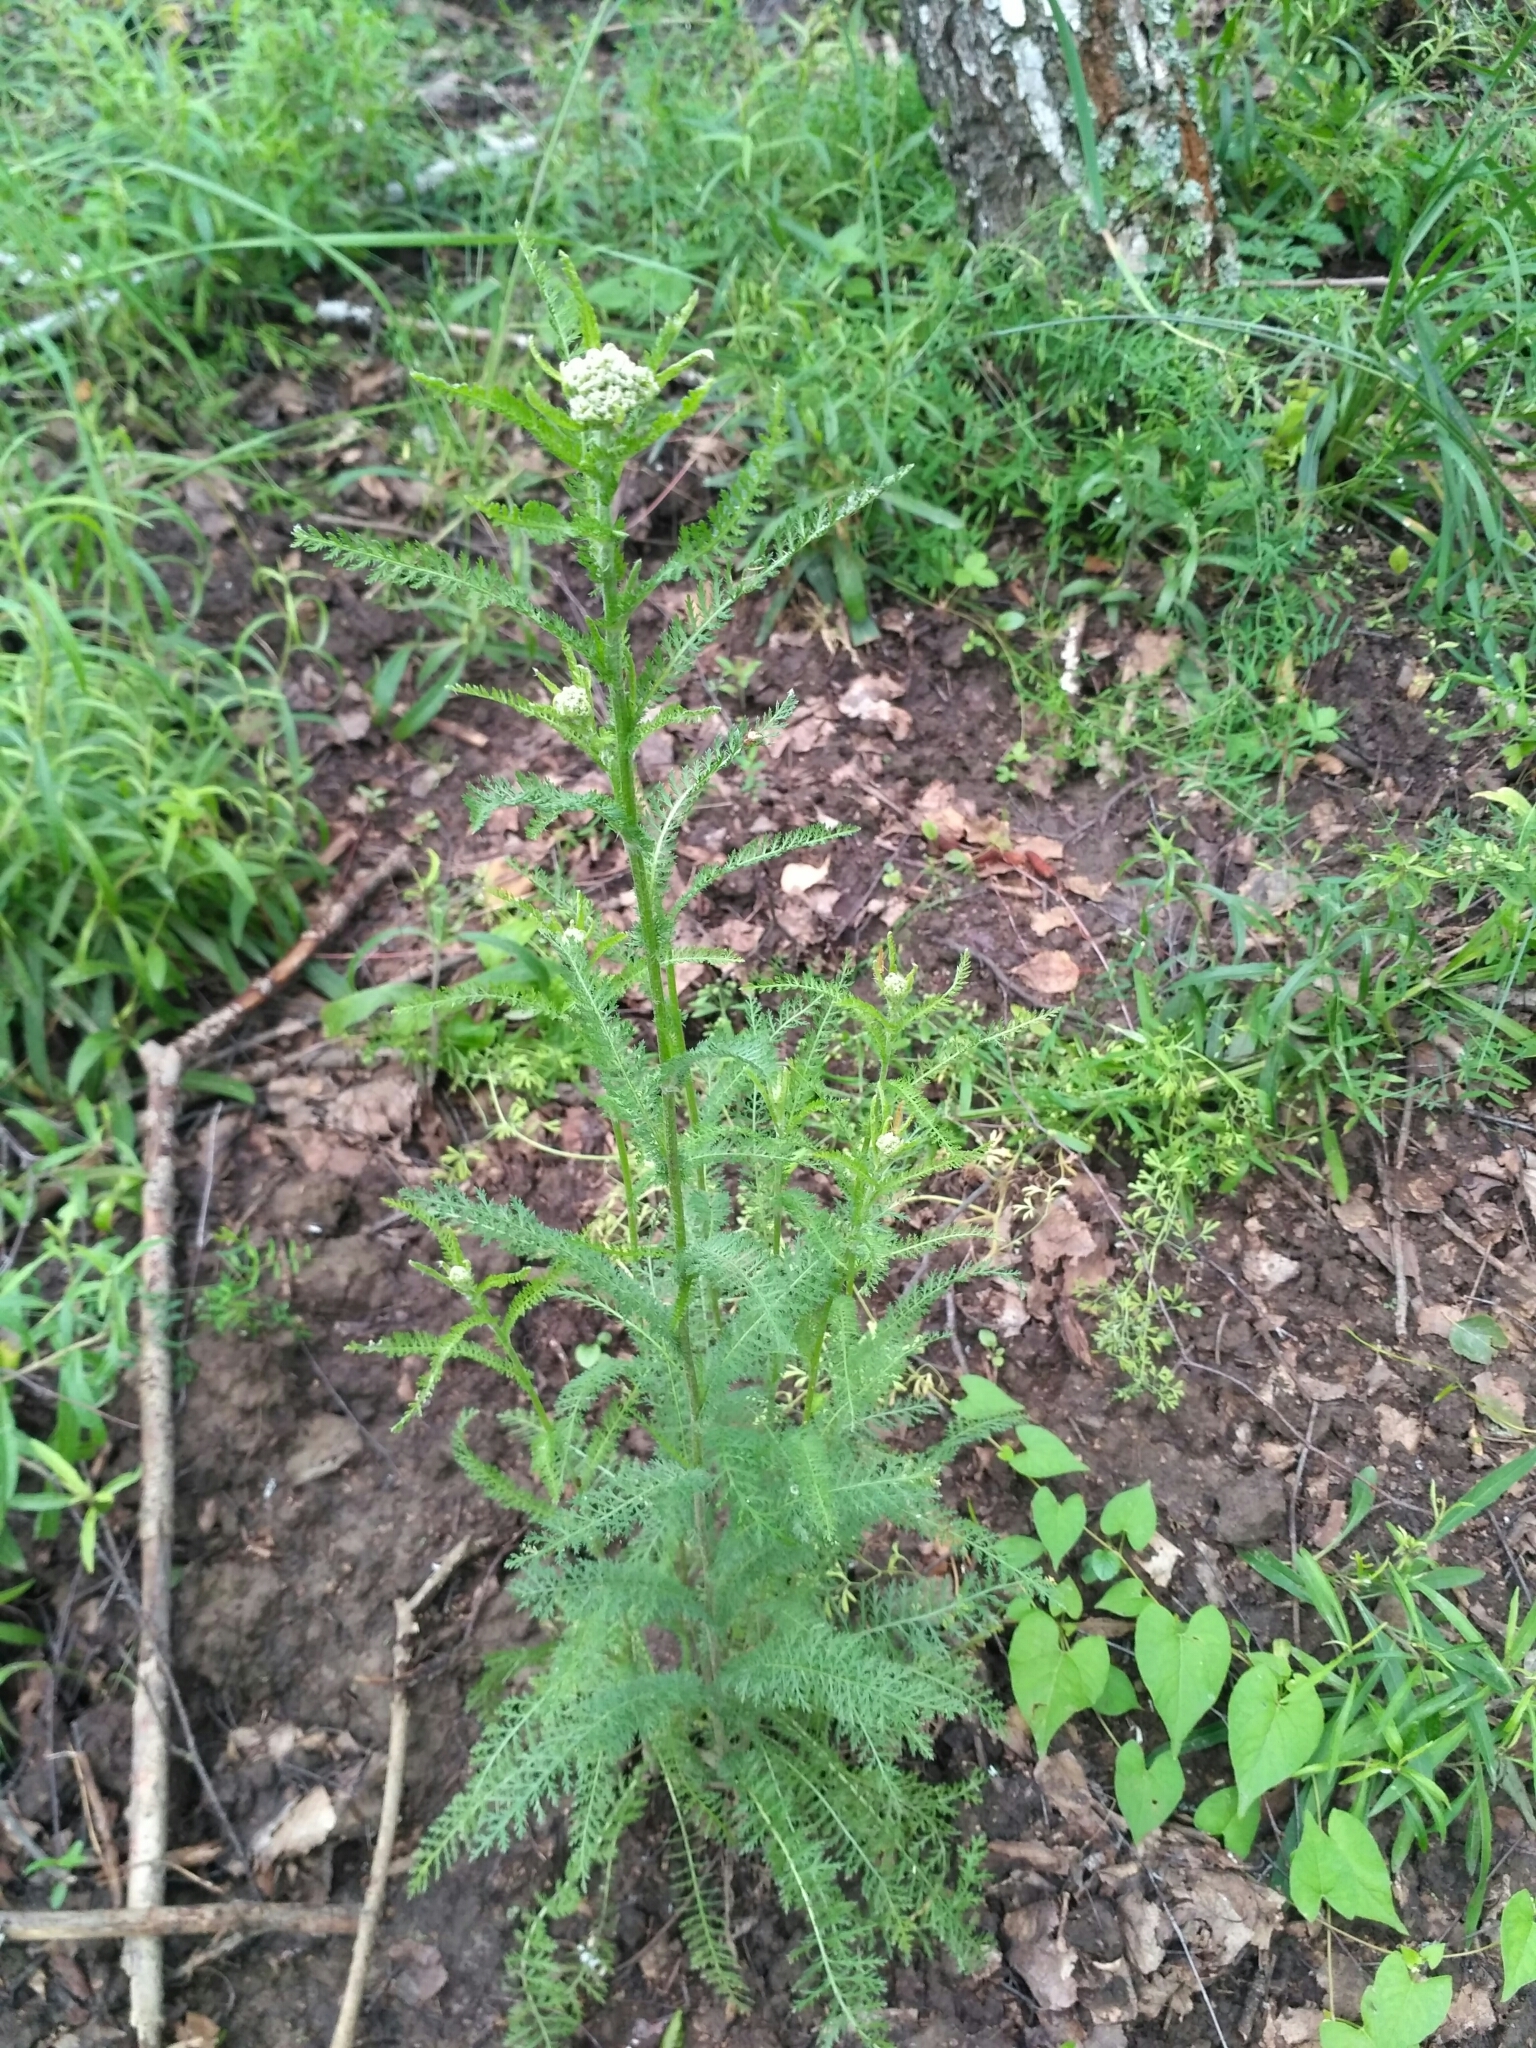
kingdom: Plantae
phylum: Tracheophyta
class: Magnoliopsida
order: Asterales
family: Asteraceae
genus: Achillea
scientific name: Achillea millefolium
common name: Yarrow
